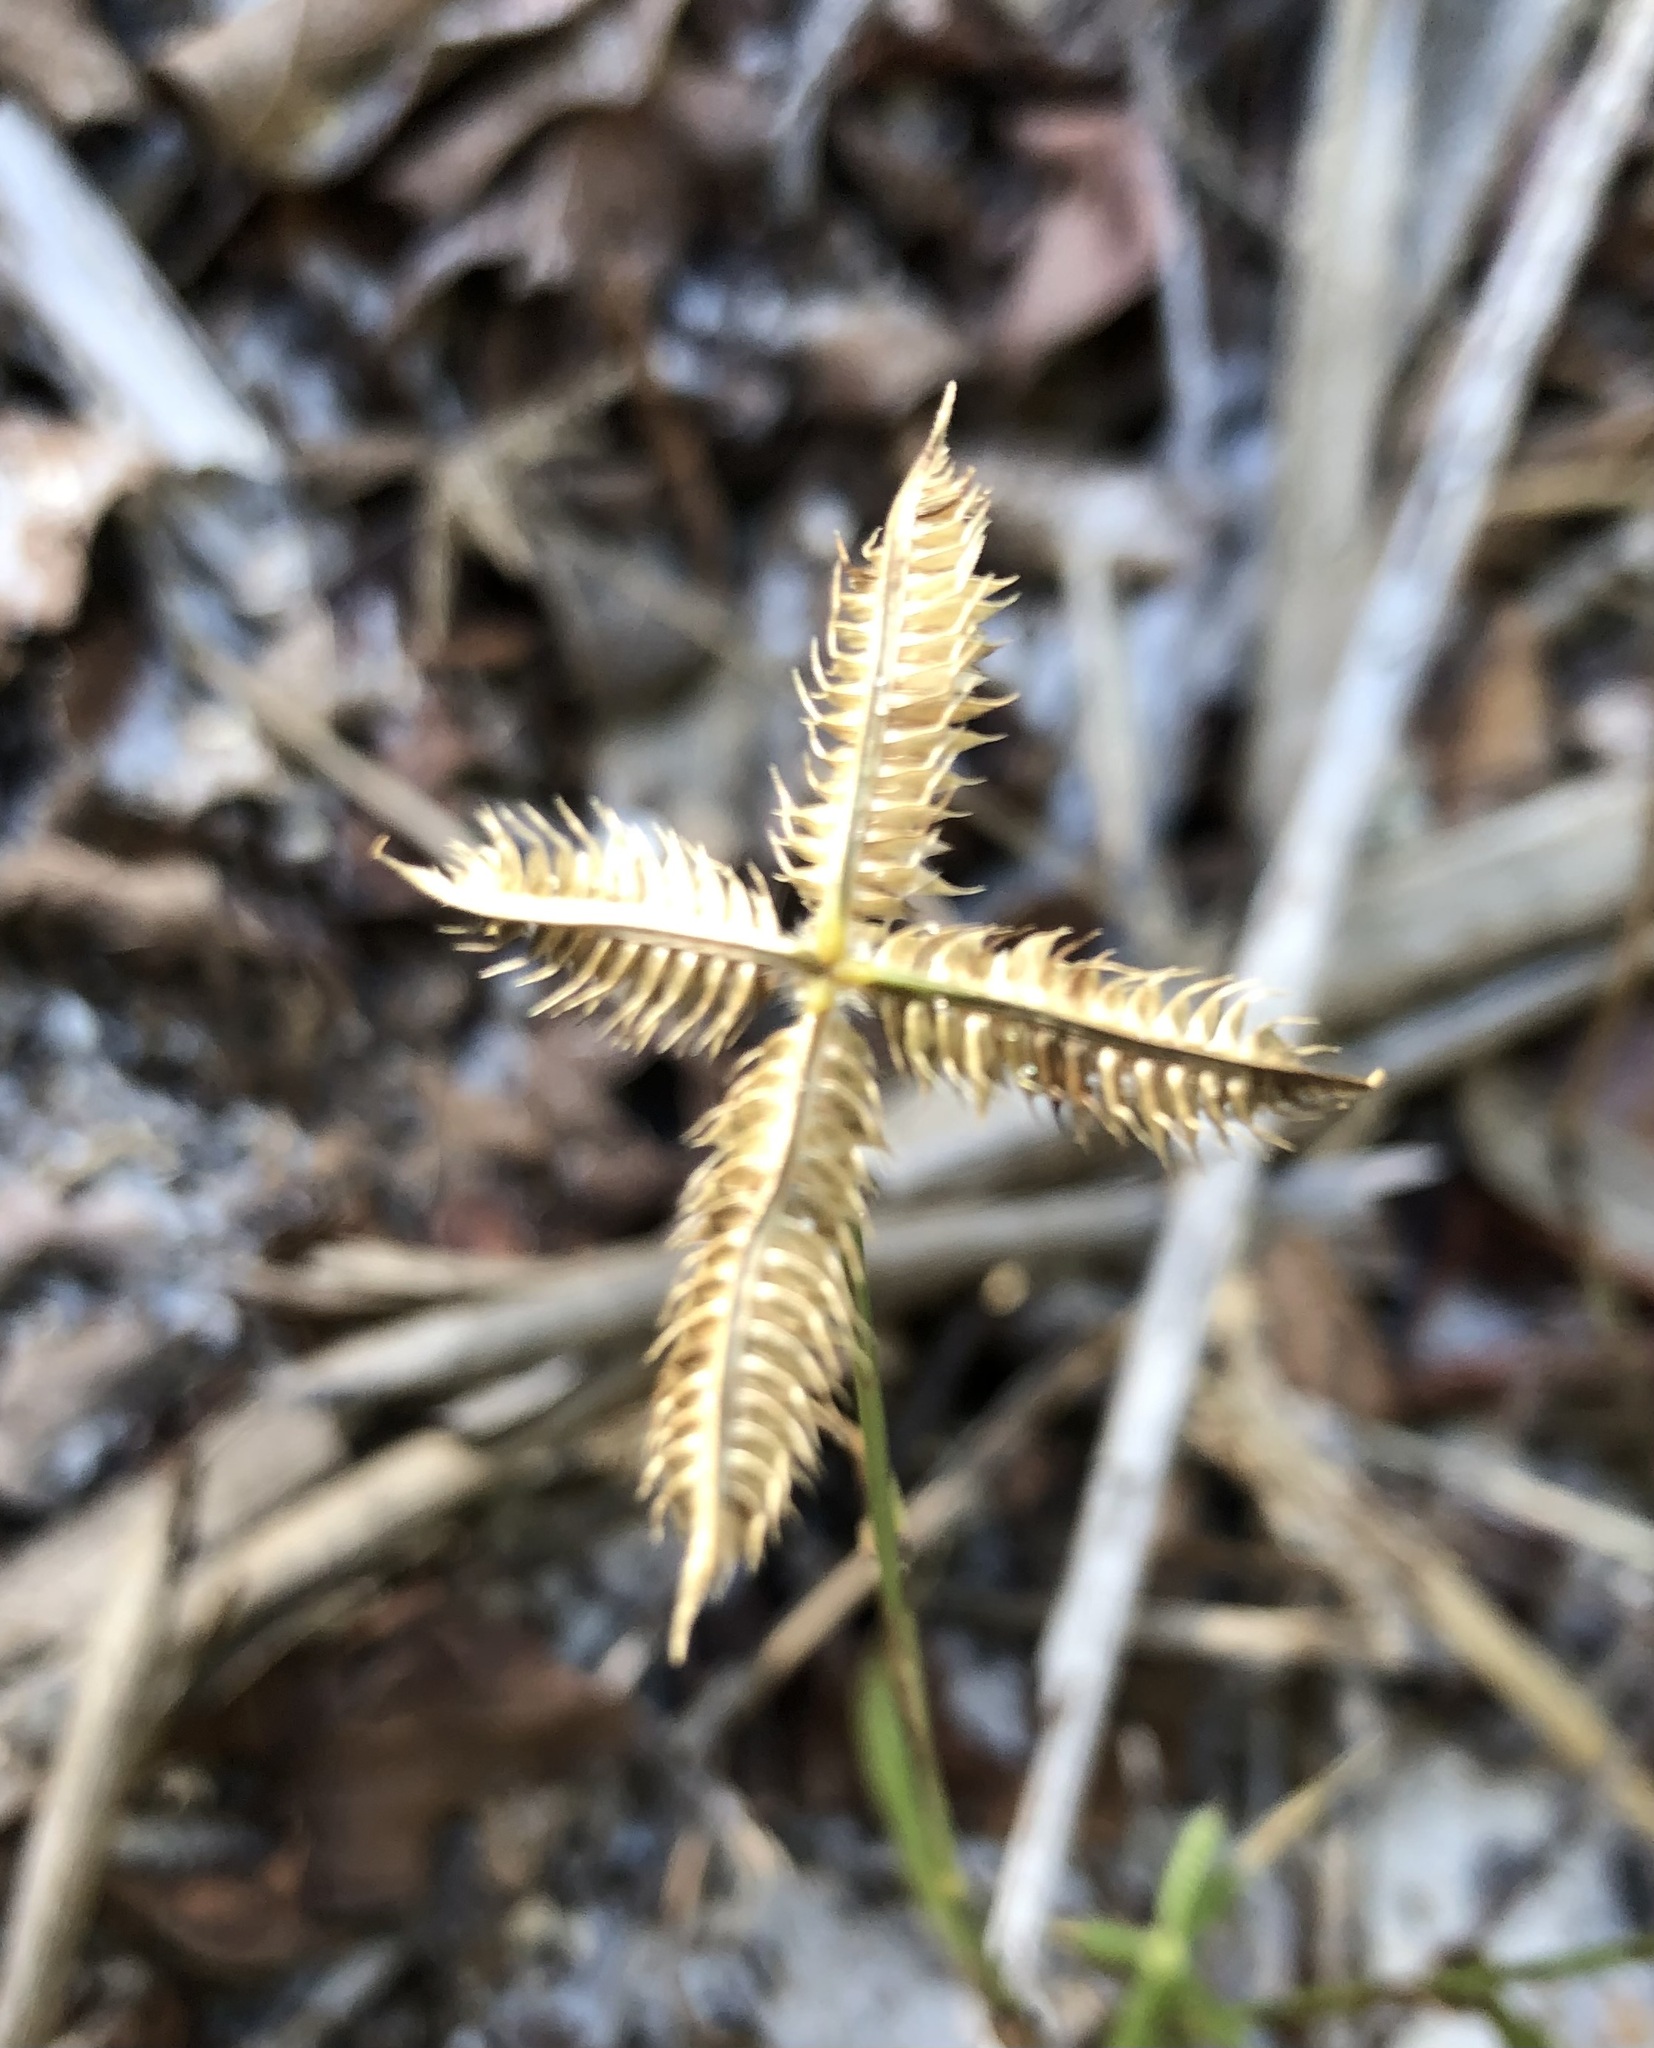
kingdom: Plantae
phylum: Tracheophyta
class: Liliopsida
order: Poales
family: Poaceae
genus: Dactyloctenium
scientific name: Dactyloctenium aegyptium
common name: Egyptian grass
